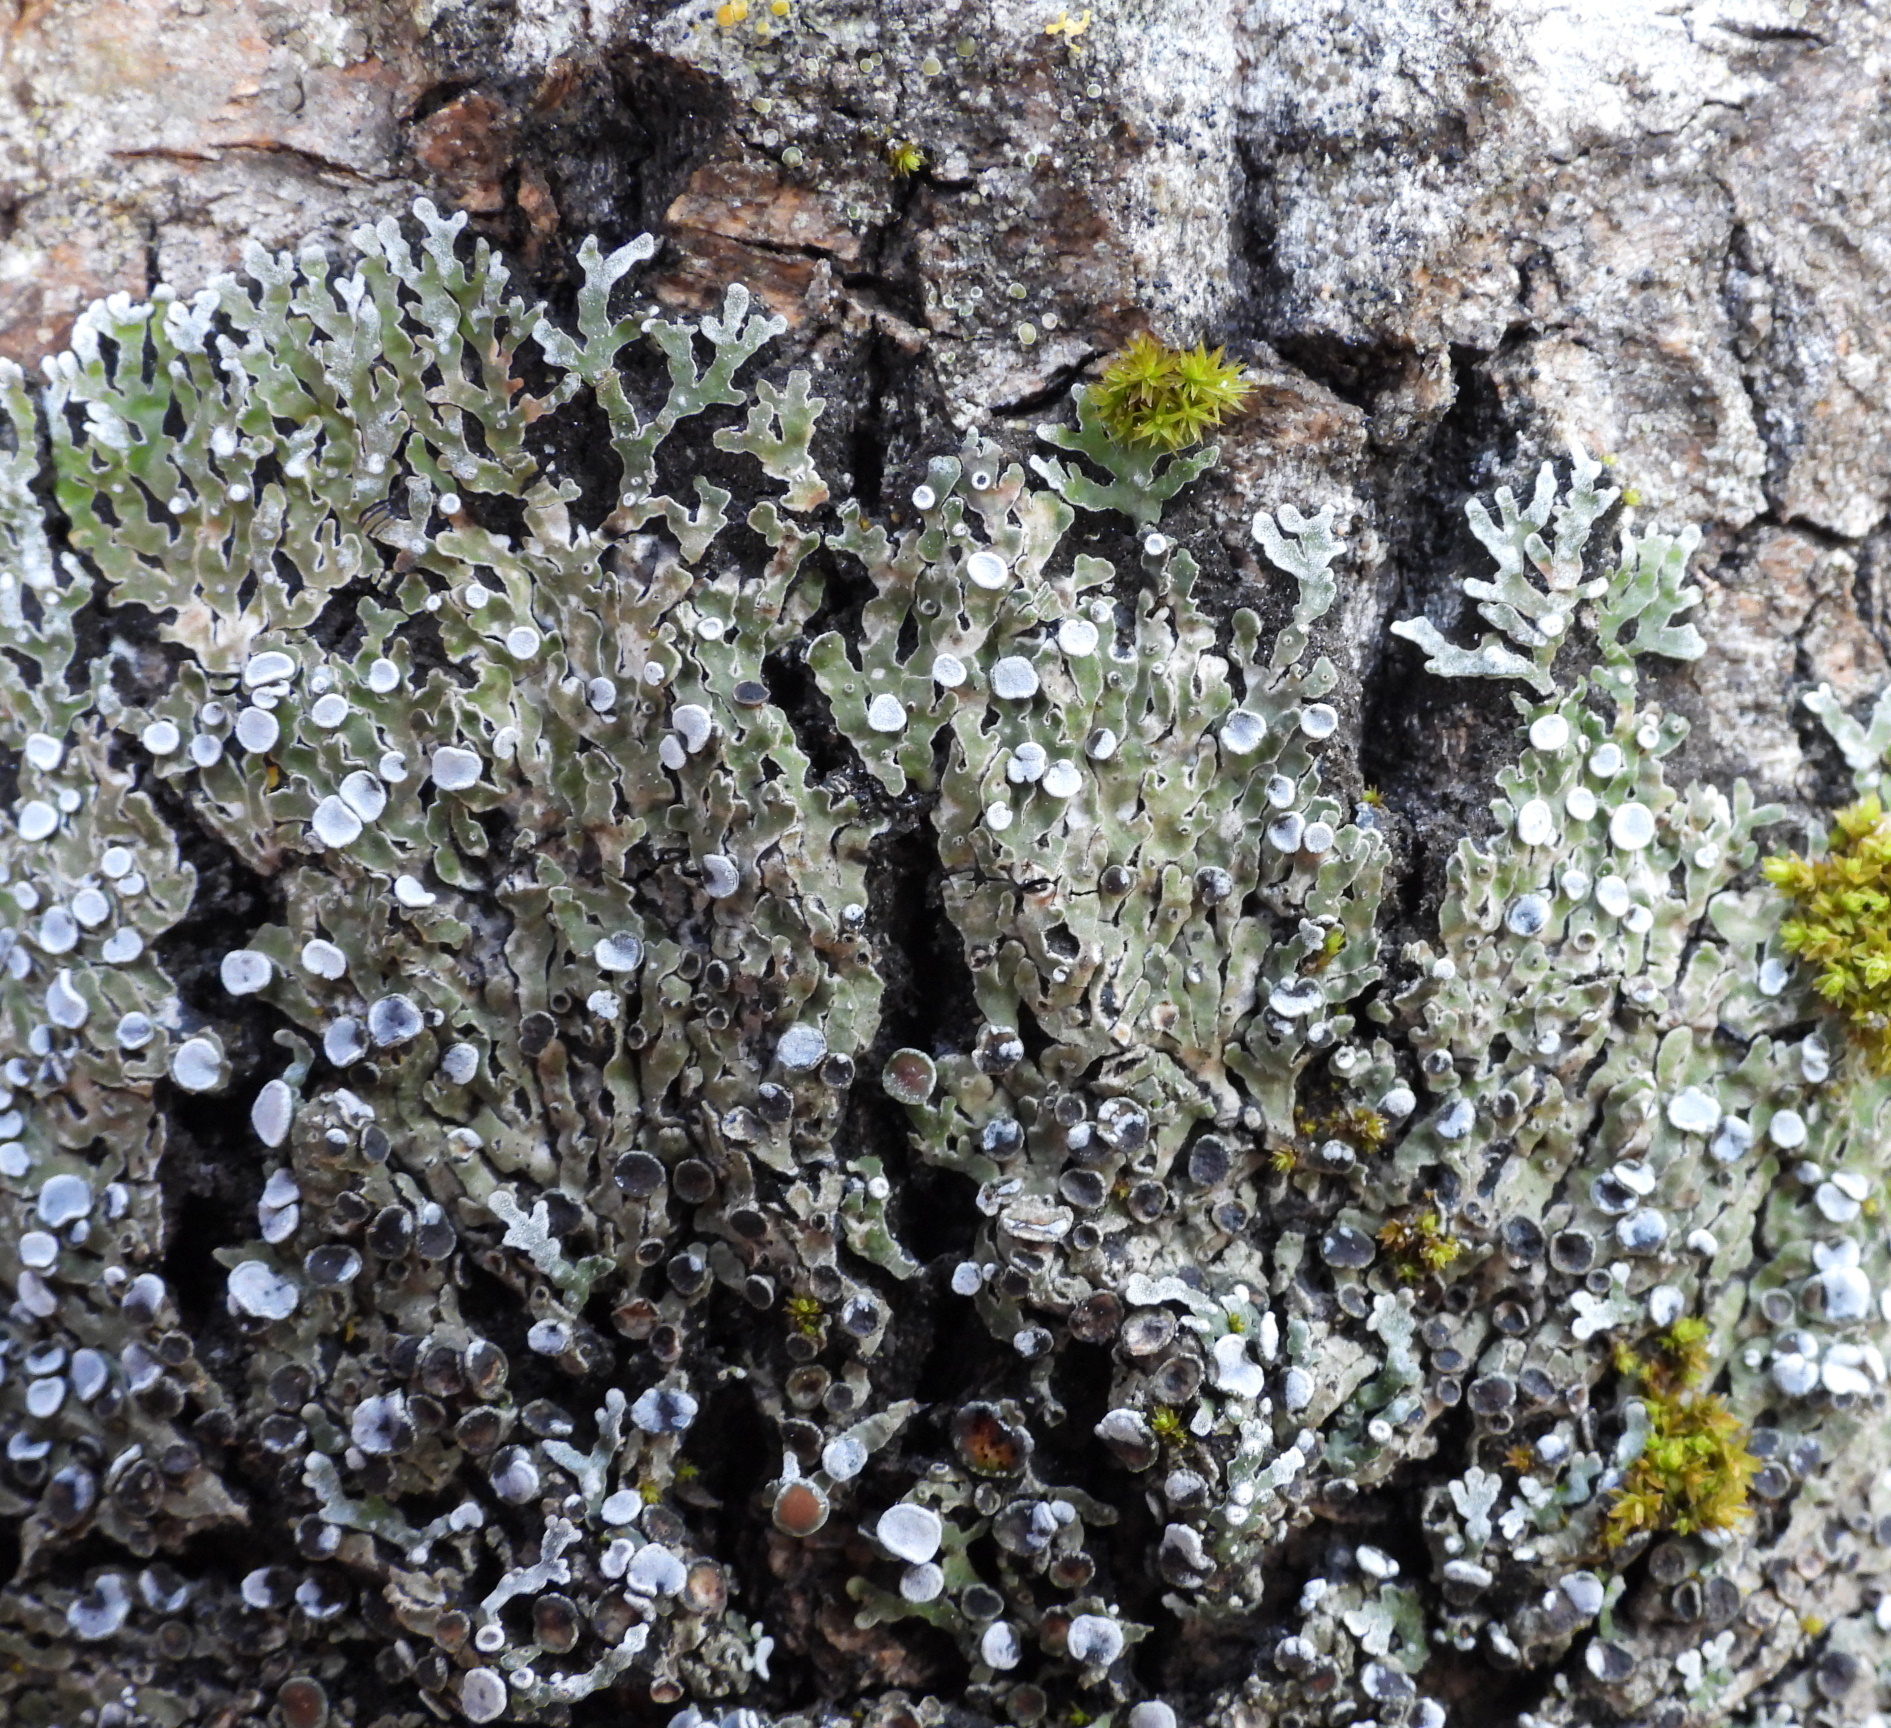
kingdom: Fungi
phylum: Ascomycota
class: Lecanoromycetes
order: Caliciales
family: Physciaceae
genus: Physconia
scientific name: Physconia distorta
